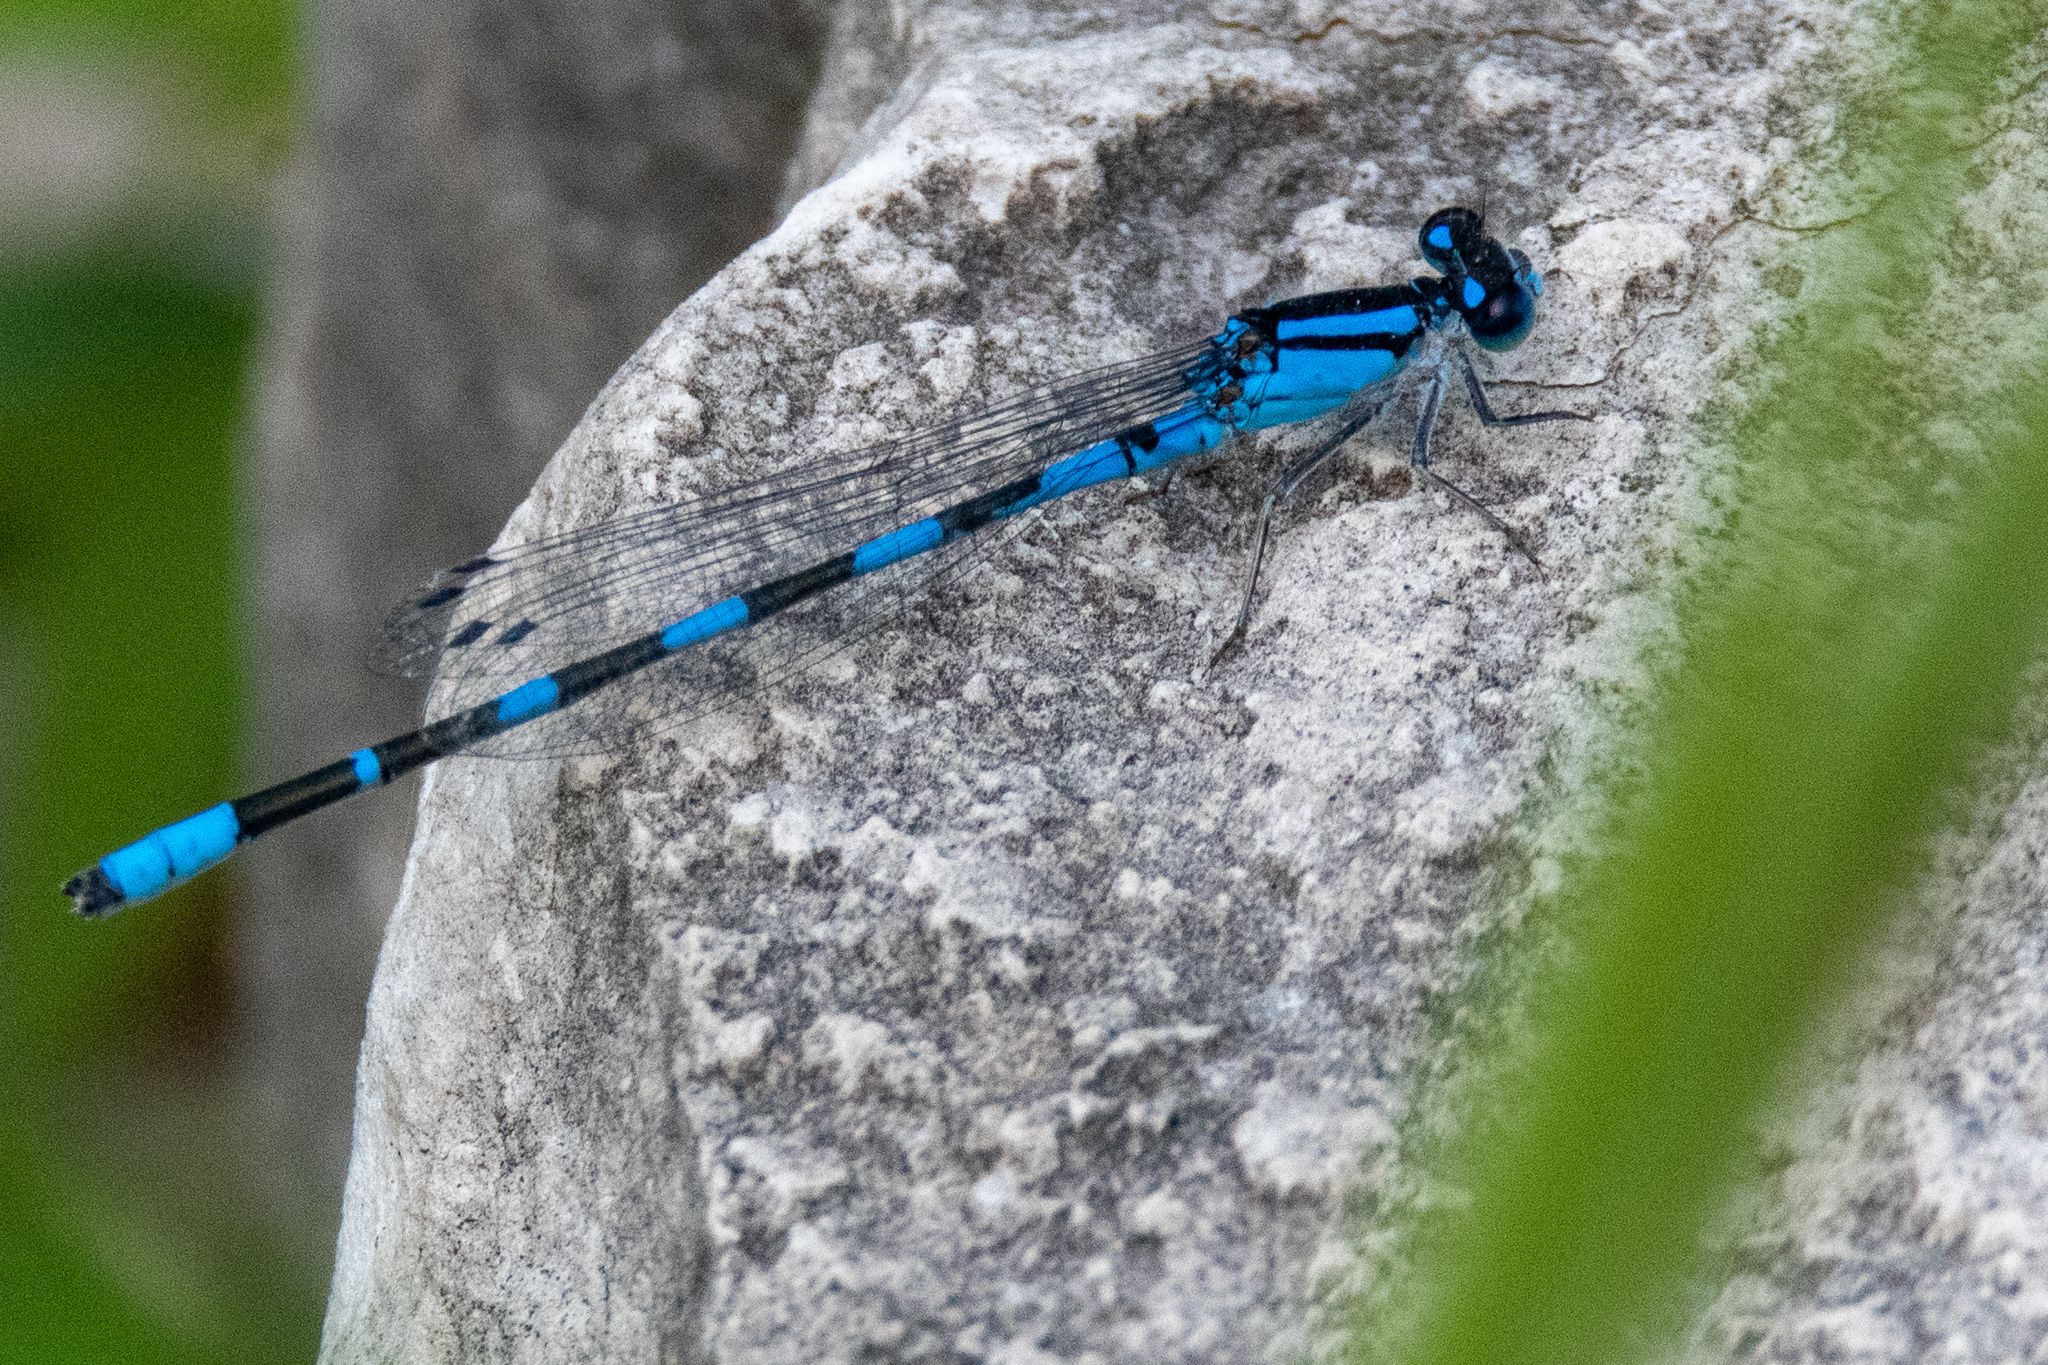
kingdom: Animalia
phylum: Arthropoda
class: Insecta
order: Odonata
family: Coenagrionidae
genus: Enallagma
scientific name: Enallagma carunculatum
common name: Tule bluet
